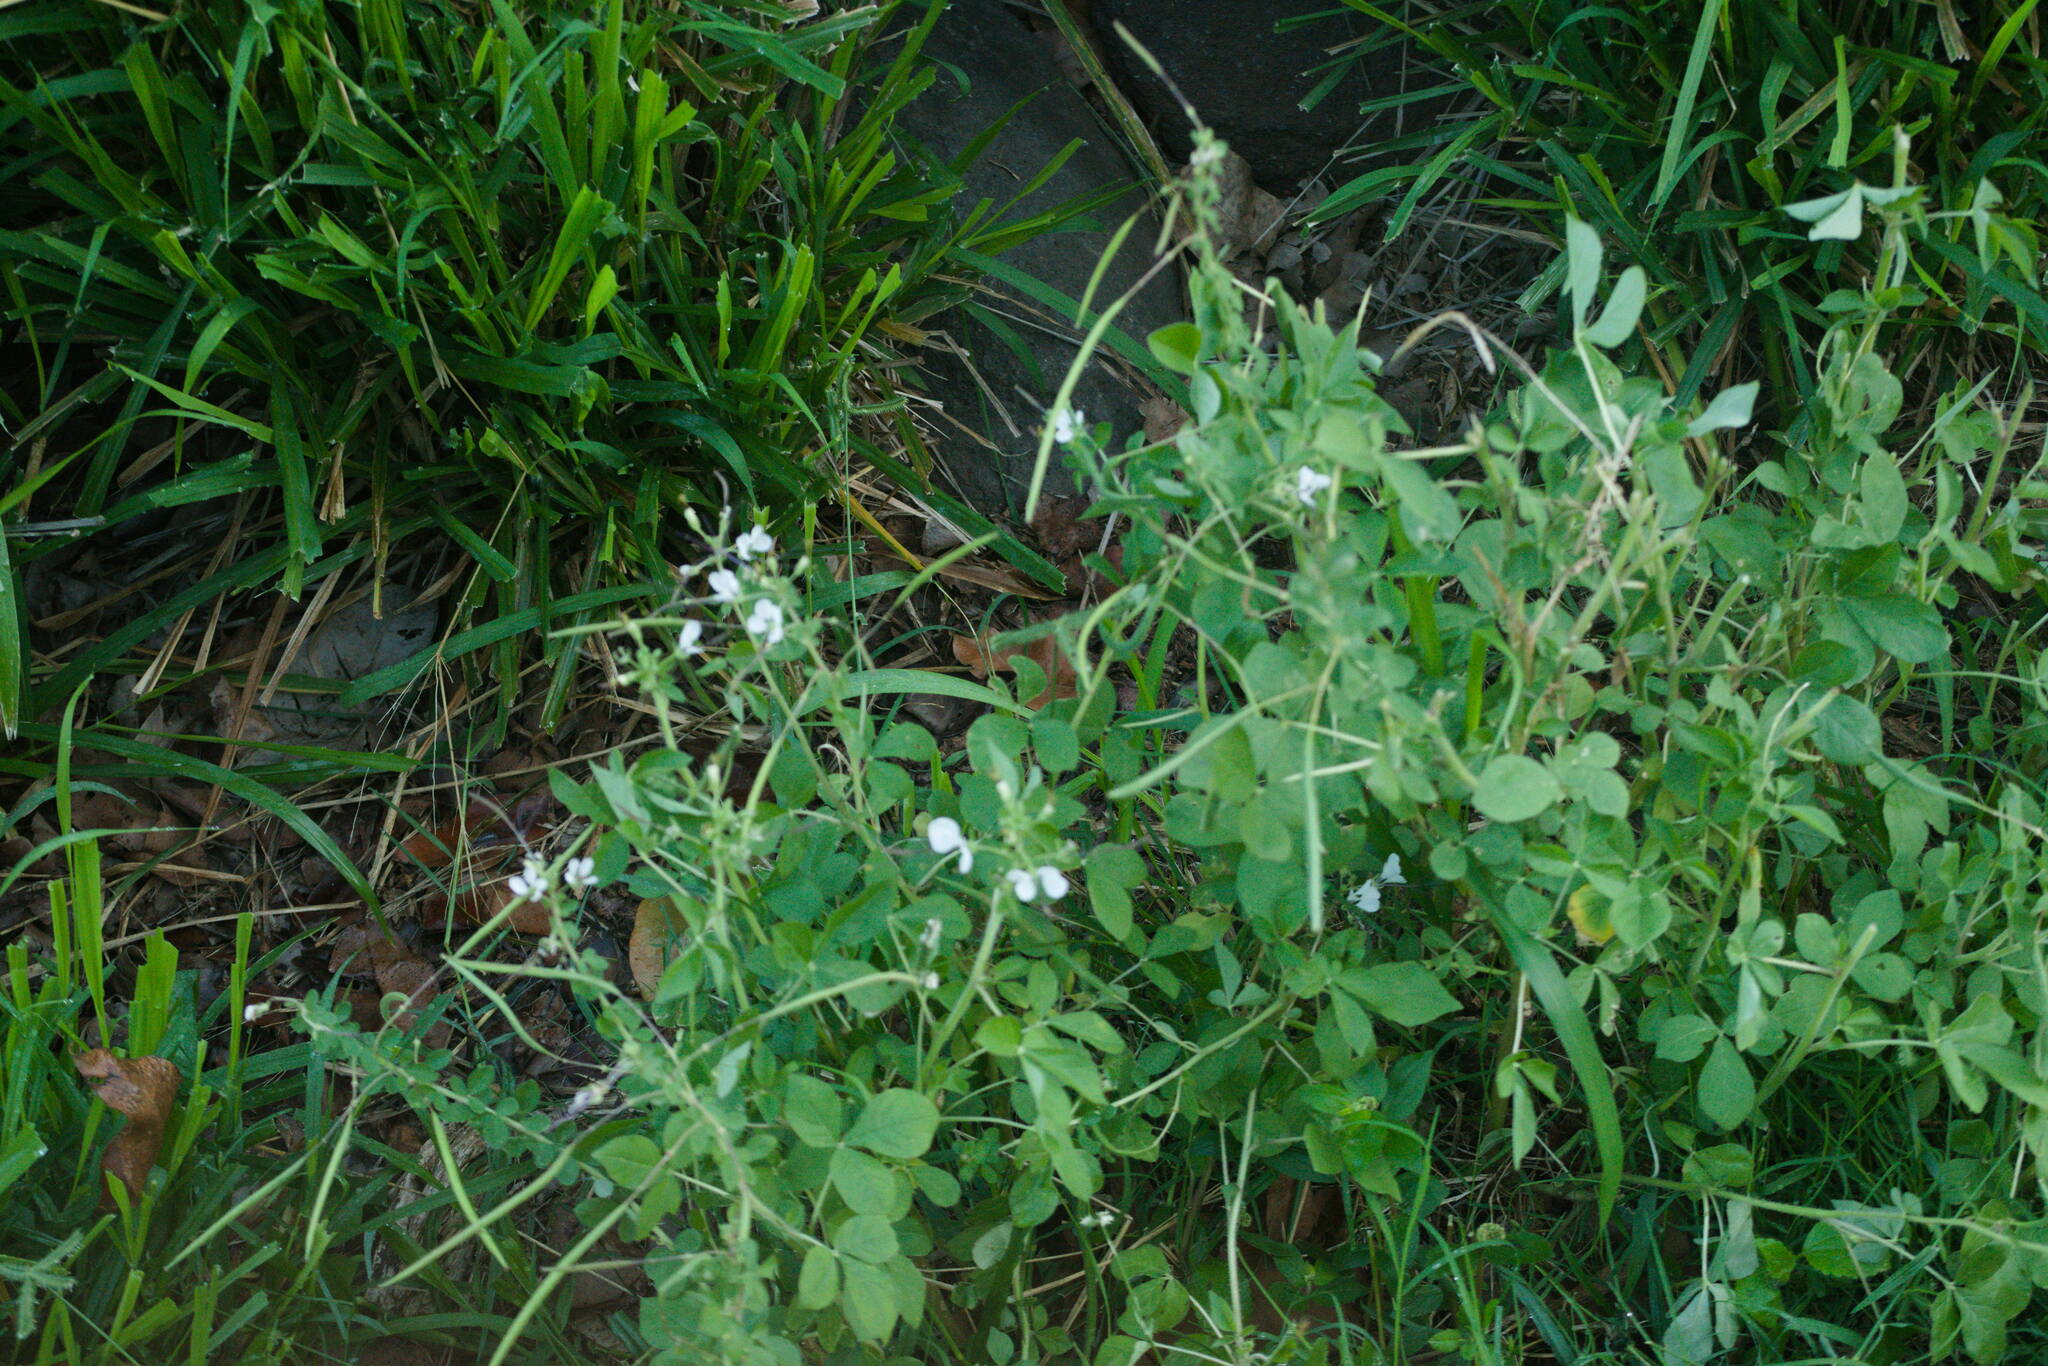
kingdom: Plantae
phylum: Tracheophyta
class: Magnoliopsida
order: Brassicales
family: Cleomaceae
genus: Gynandropsis
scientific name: Gynandropsis gynandra
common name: Spiderwisp
